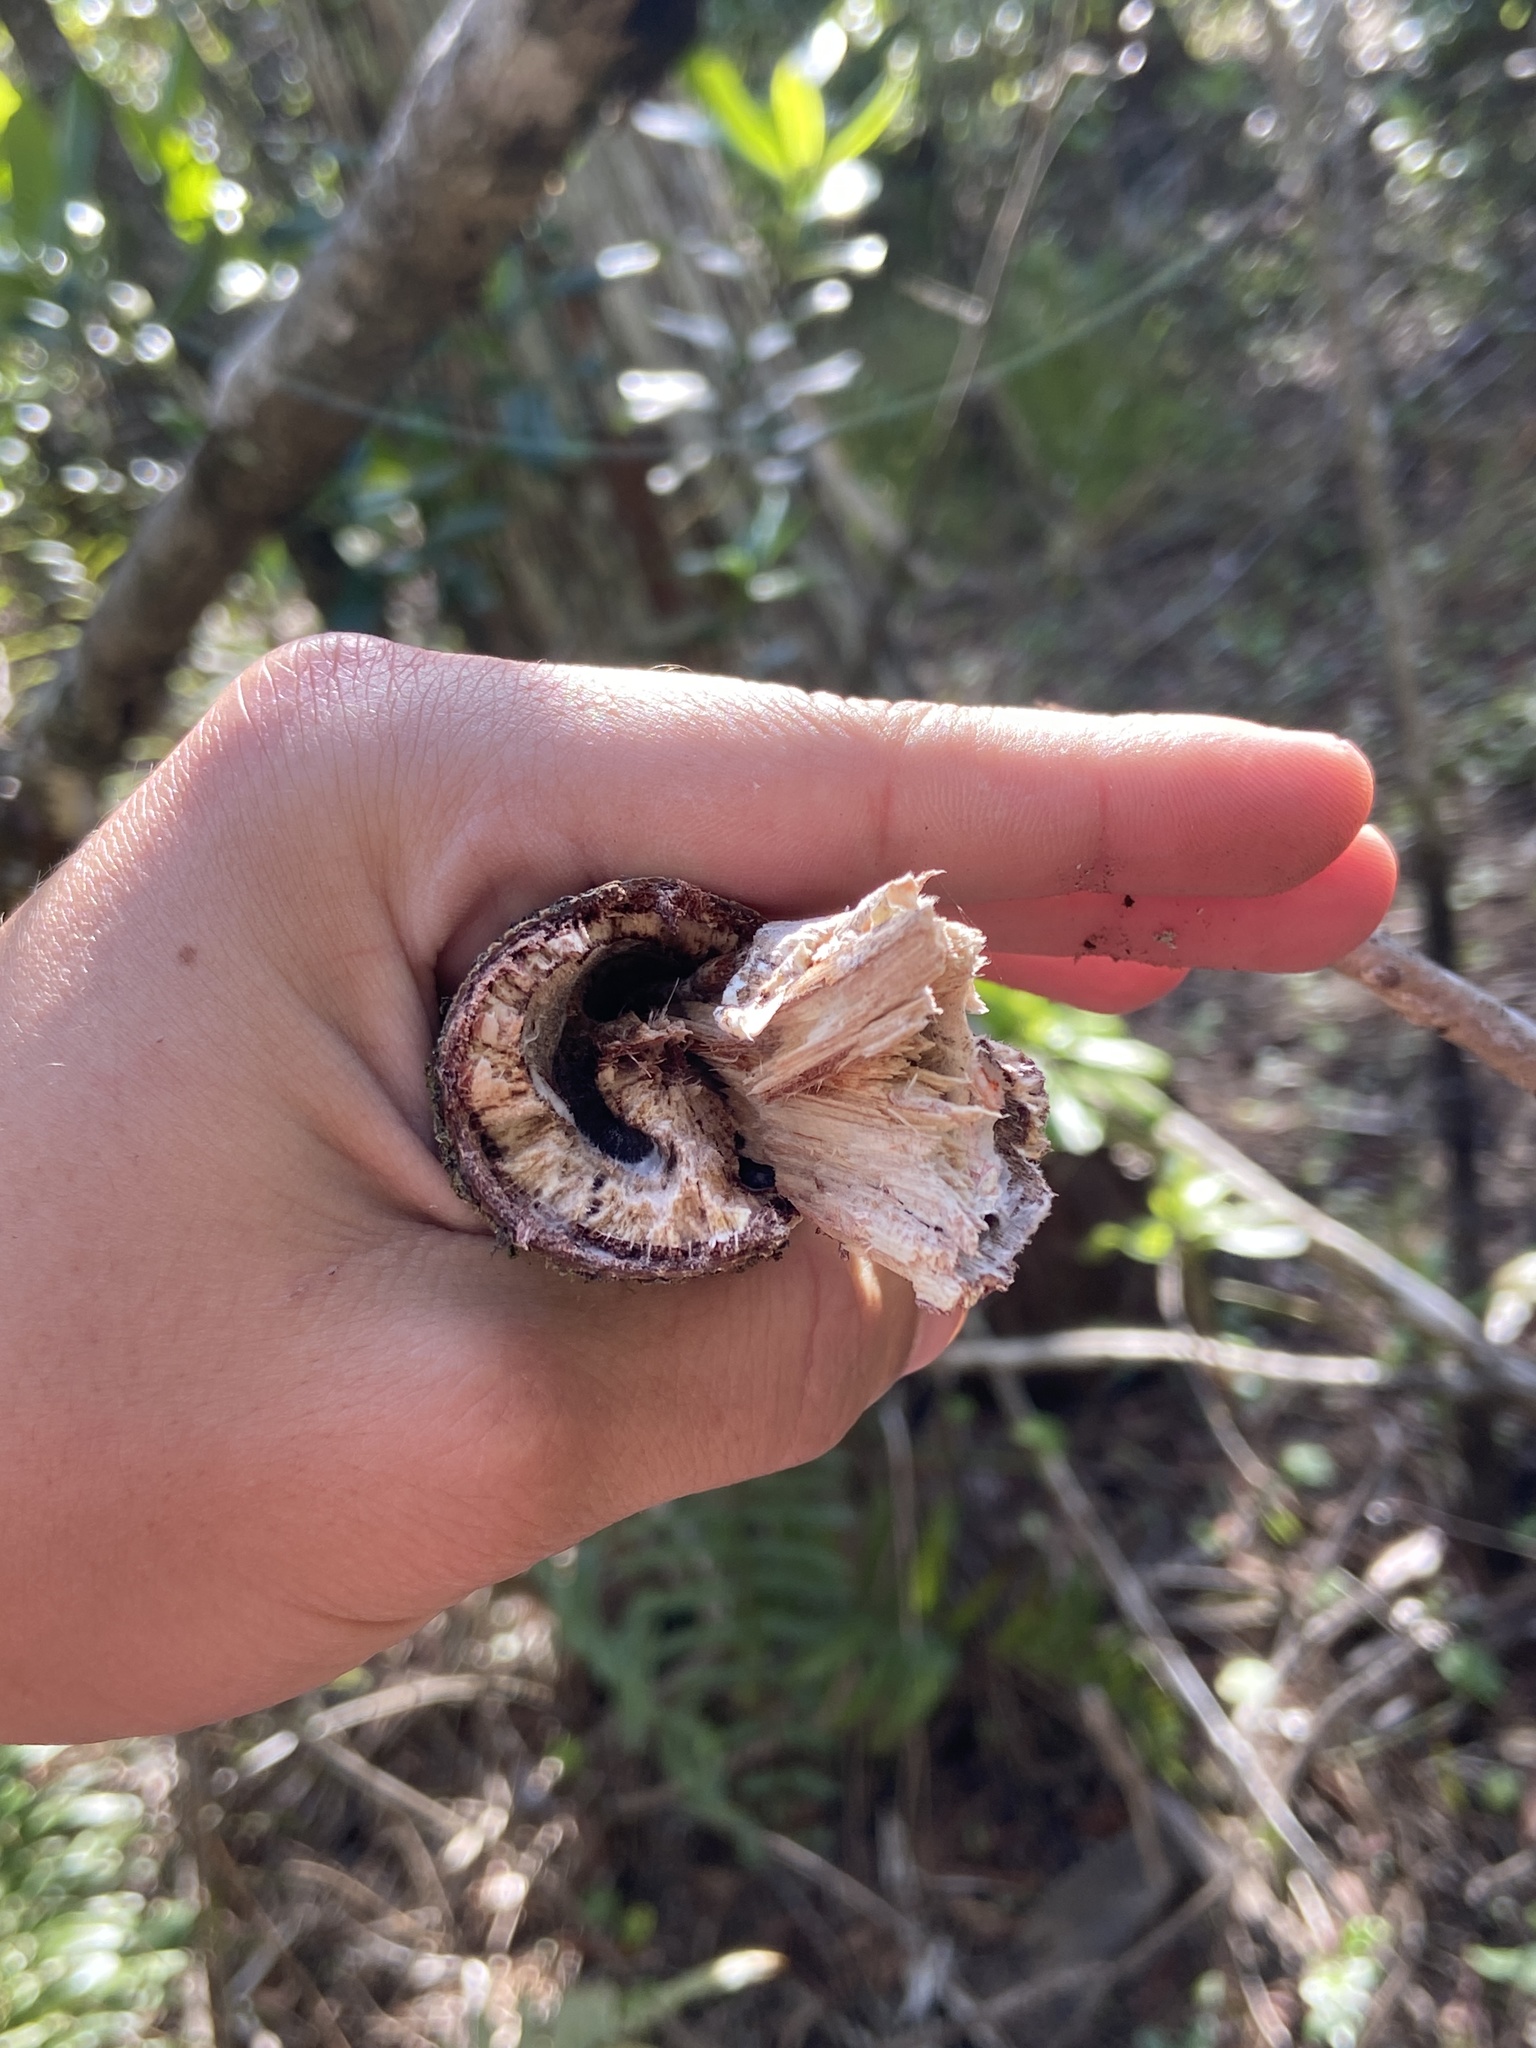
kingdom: Fungi
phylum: Basidiomycota
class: Agaricomycetes
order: Polyporales
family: Polyporaceae
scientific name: Polyporaceae
